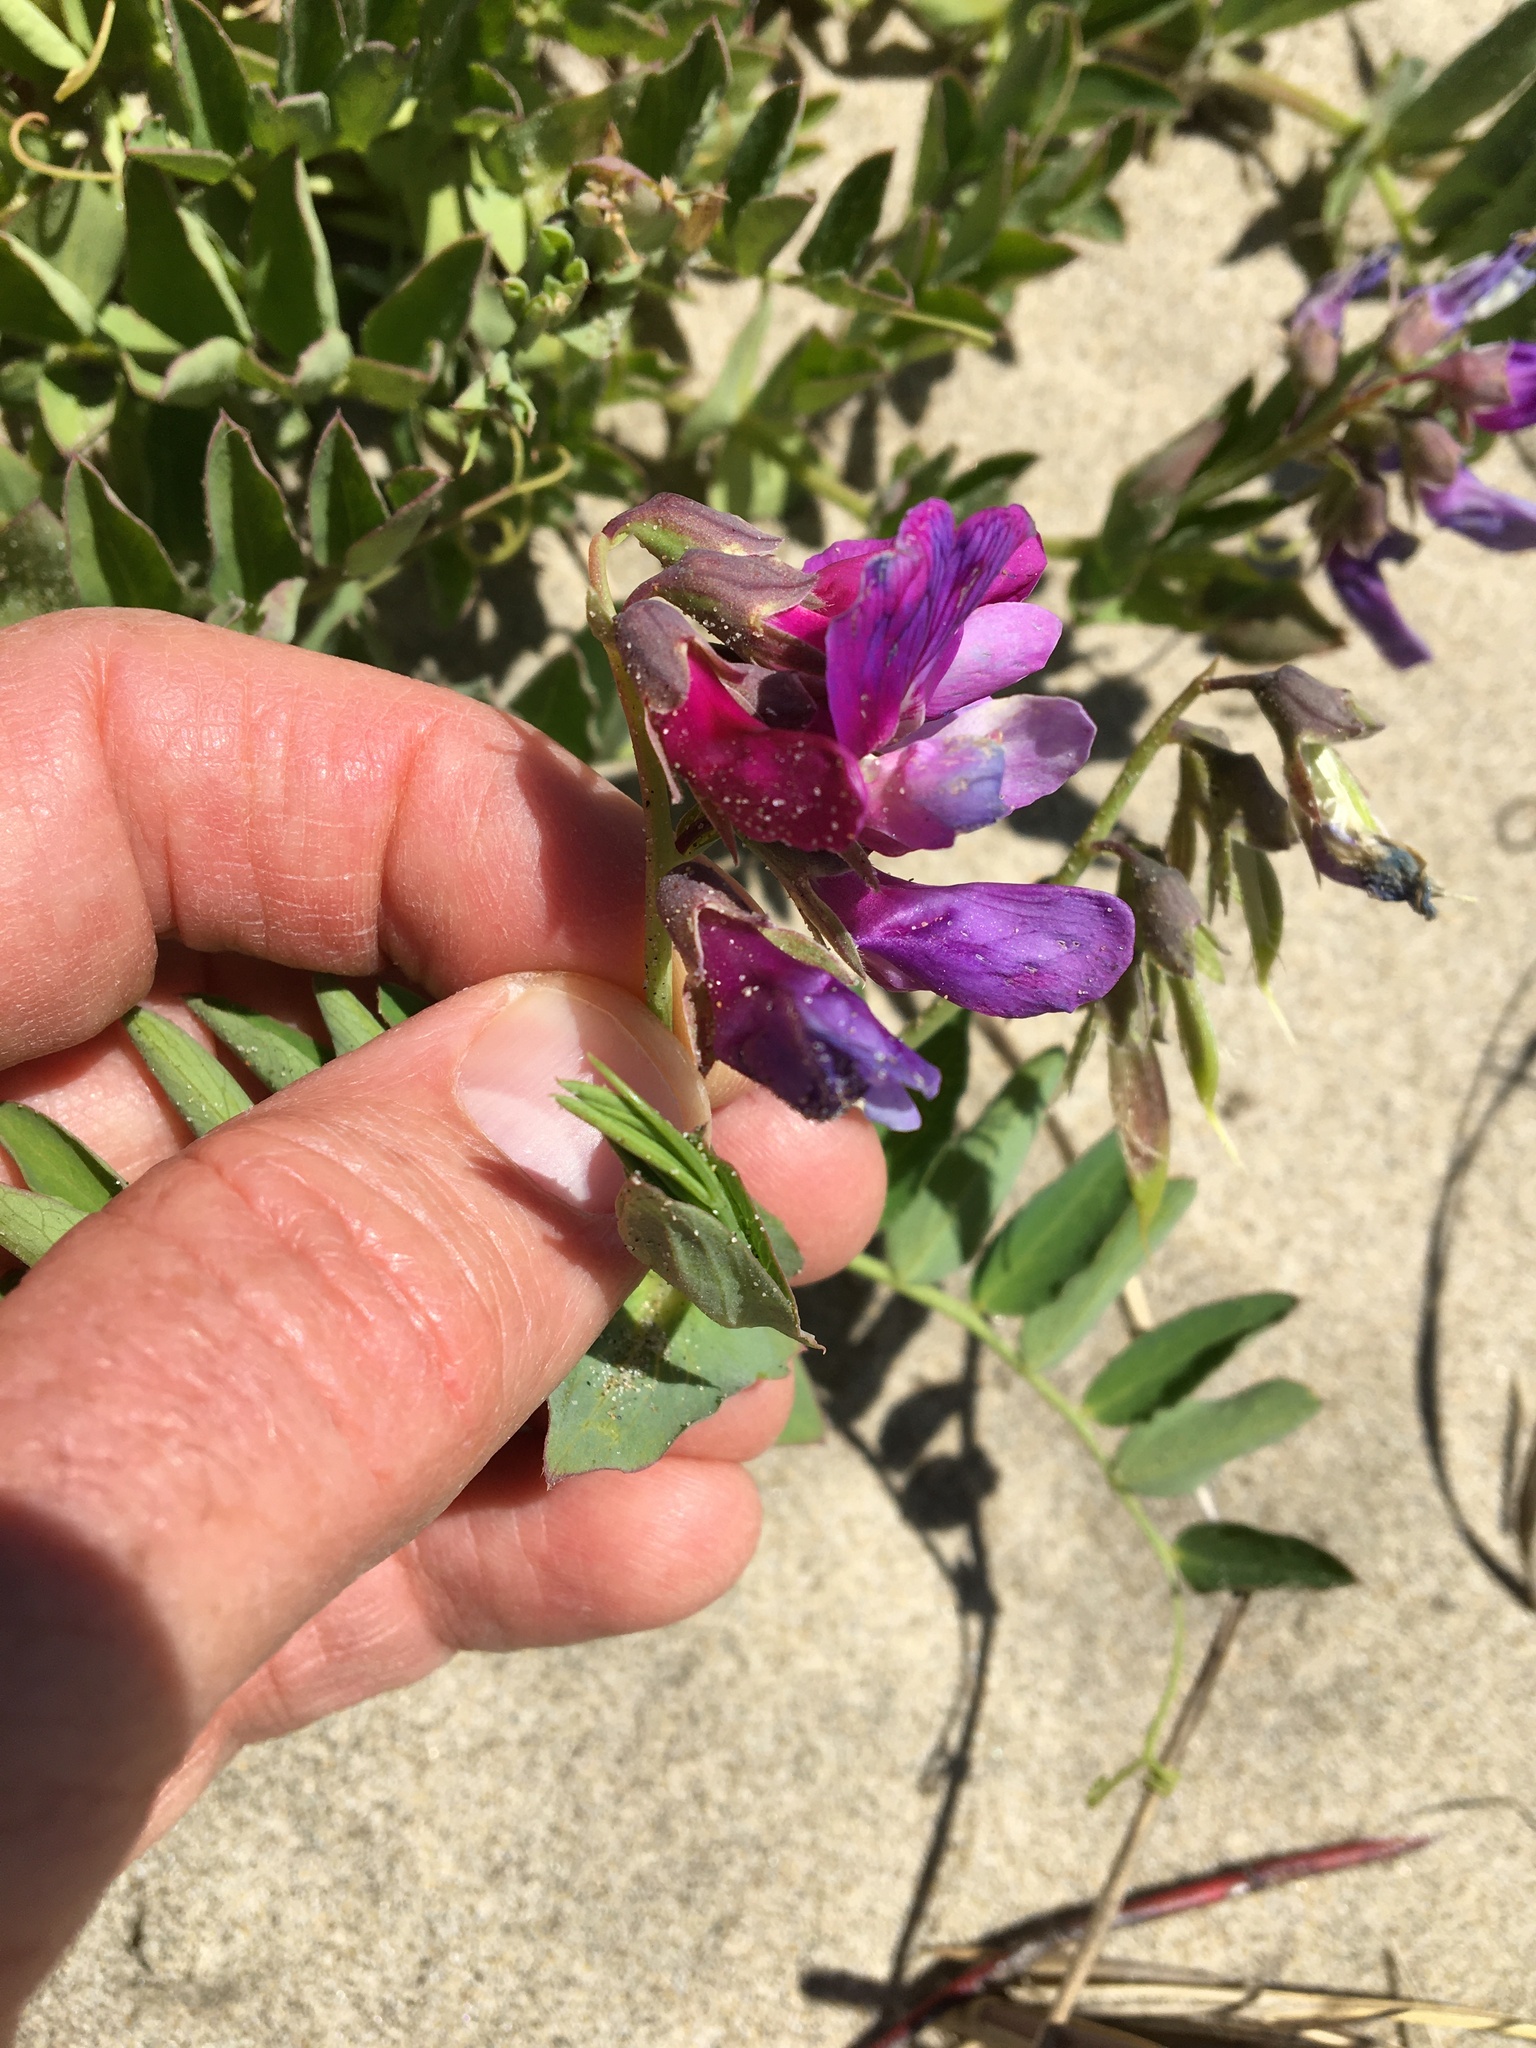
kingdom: Plantae
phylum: Tracheophyta
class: Magnoliopsida
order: Fabales
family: Fabaceae
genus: Lathyrus
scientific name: Lathyrus japonicus
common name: Sea pea
